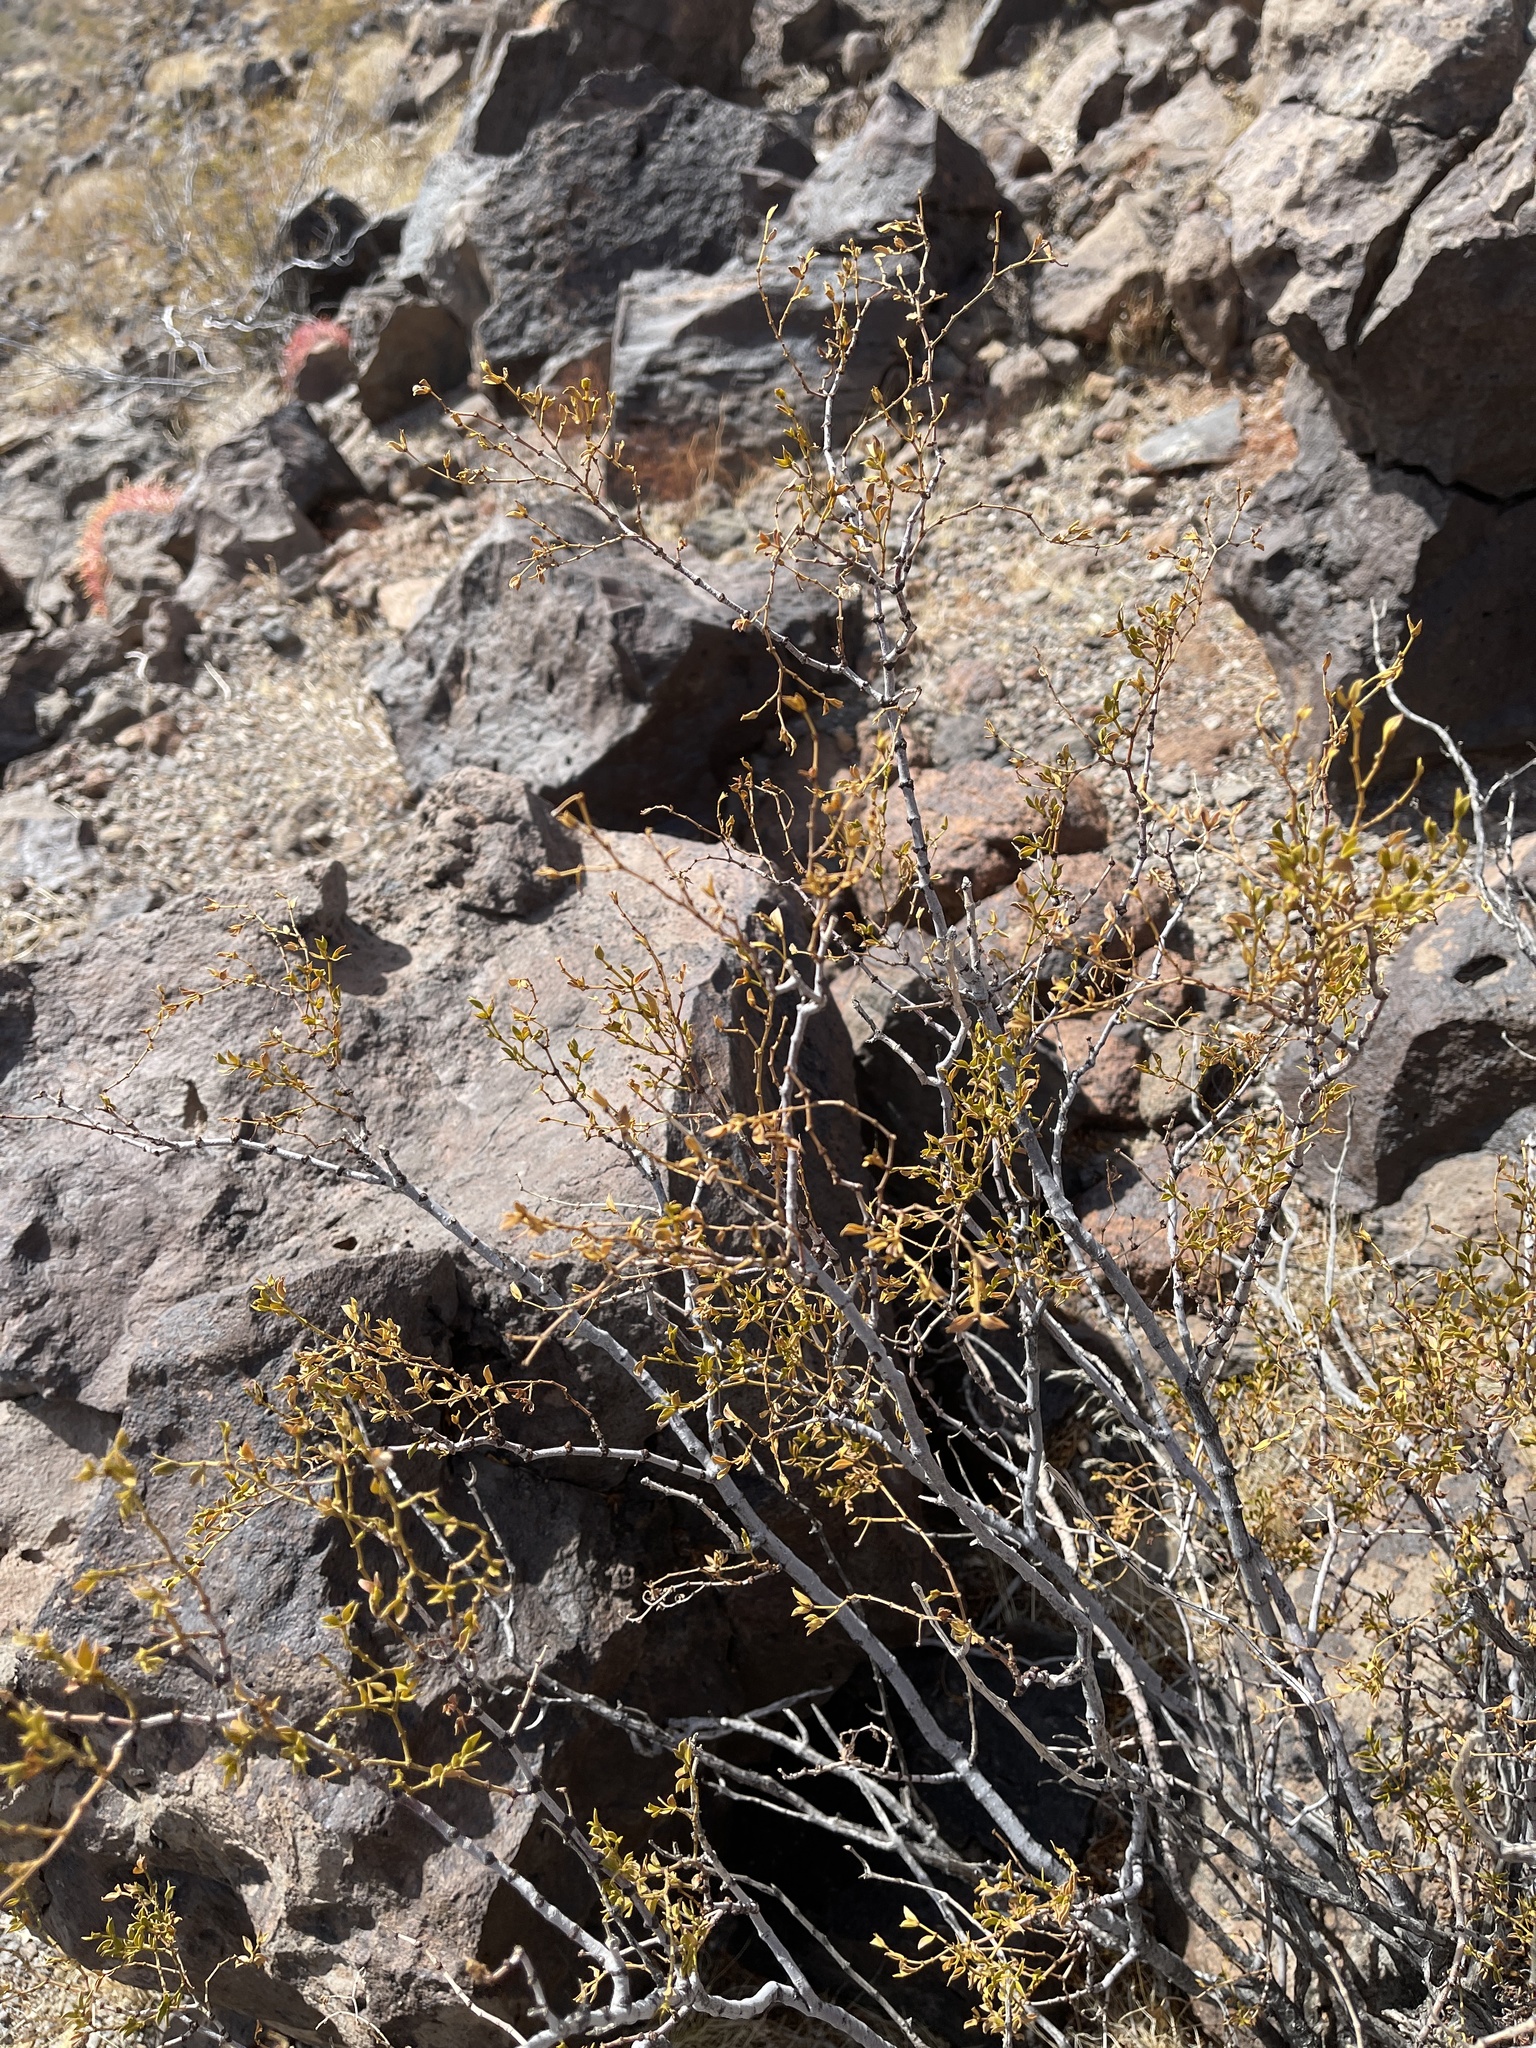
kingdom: Plantae
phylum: Tracheophyta
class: Magnoliopsida
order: Zygophyllales
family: Zygophyllaceae
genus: Larrea
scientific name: Larrea tridentata
